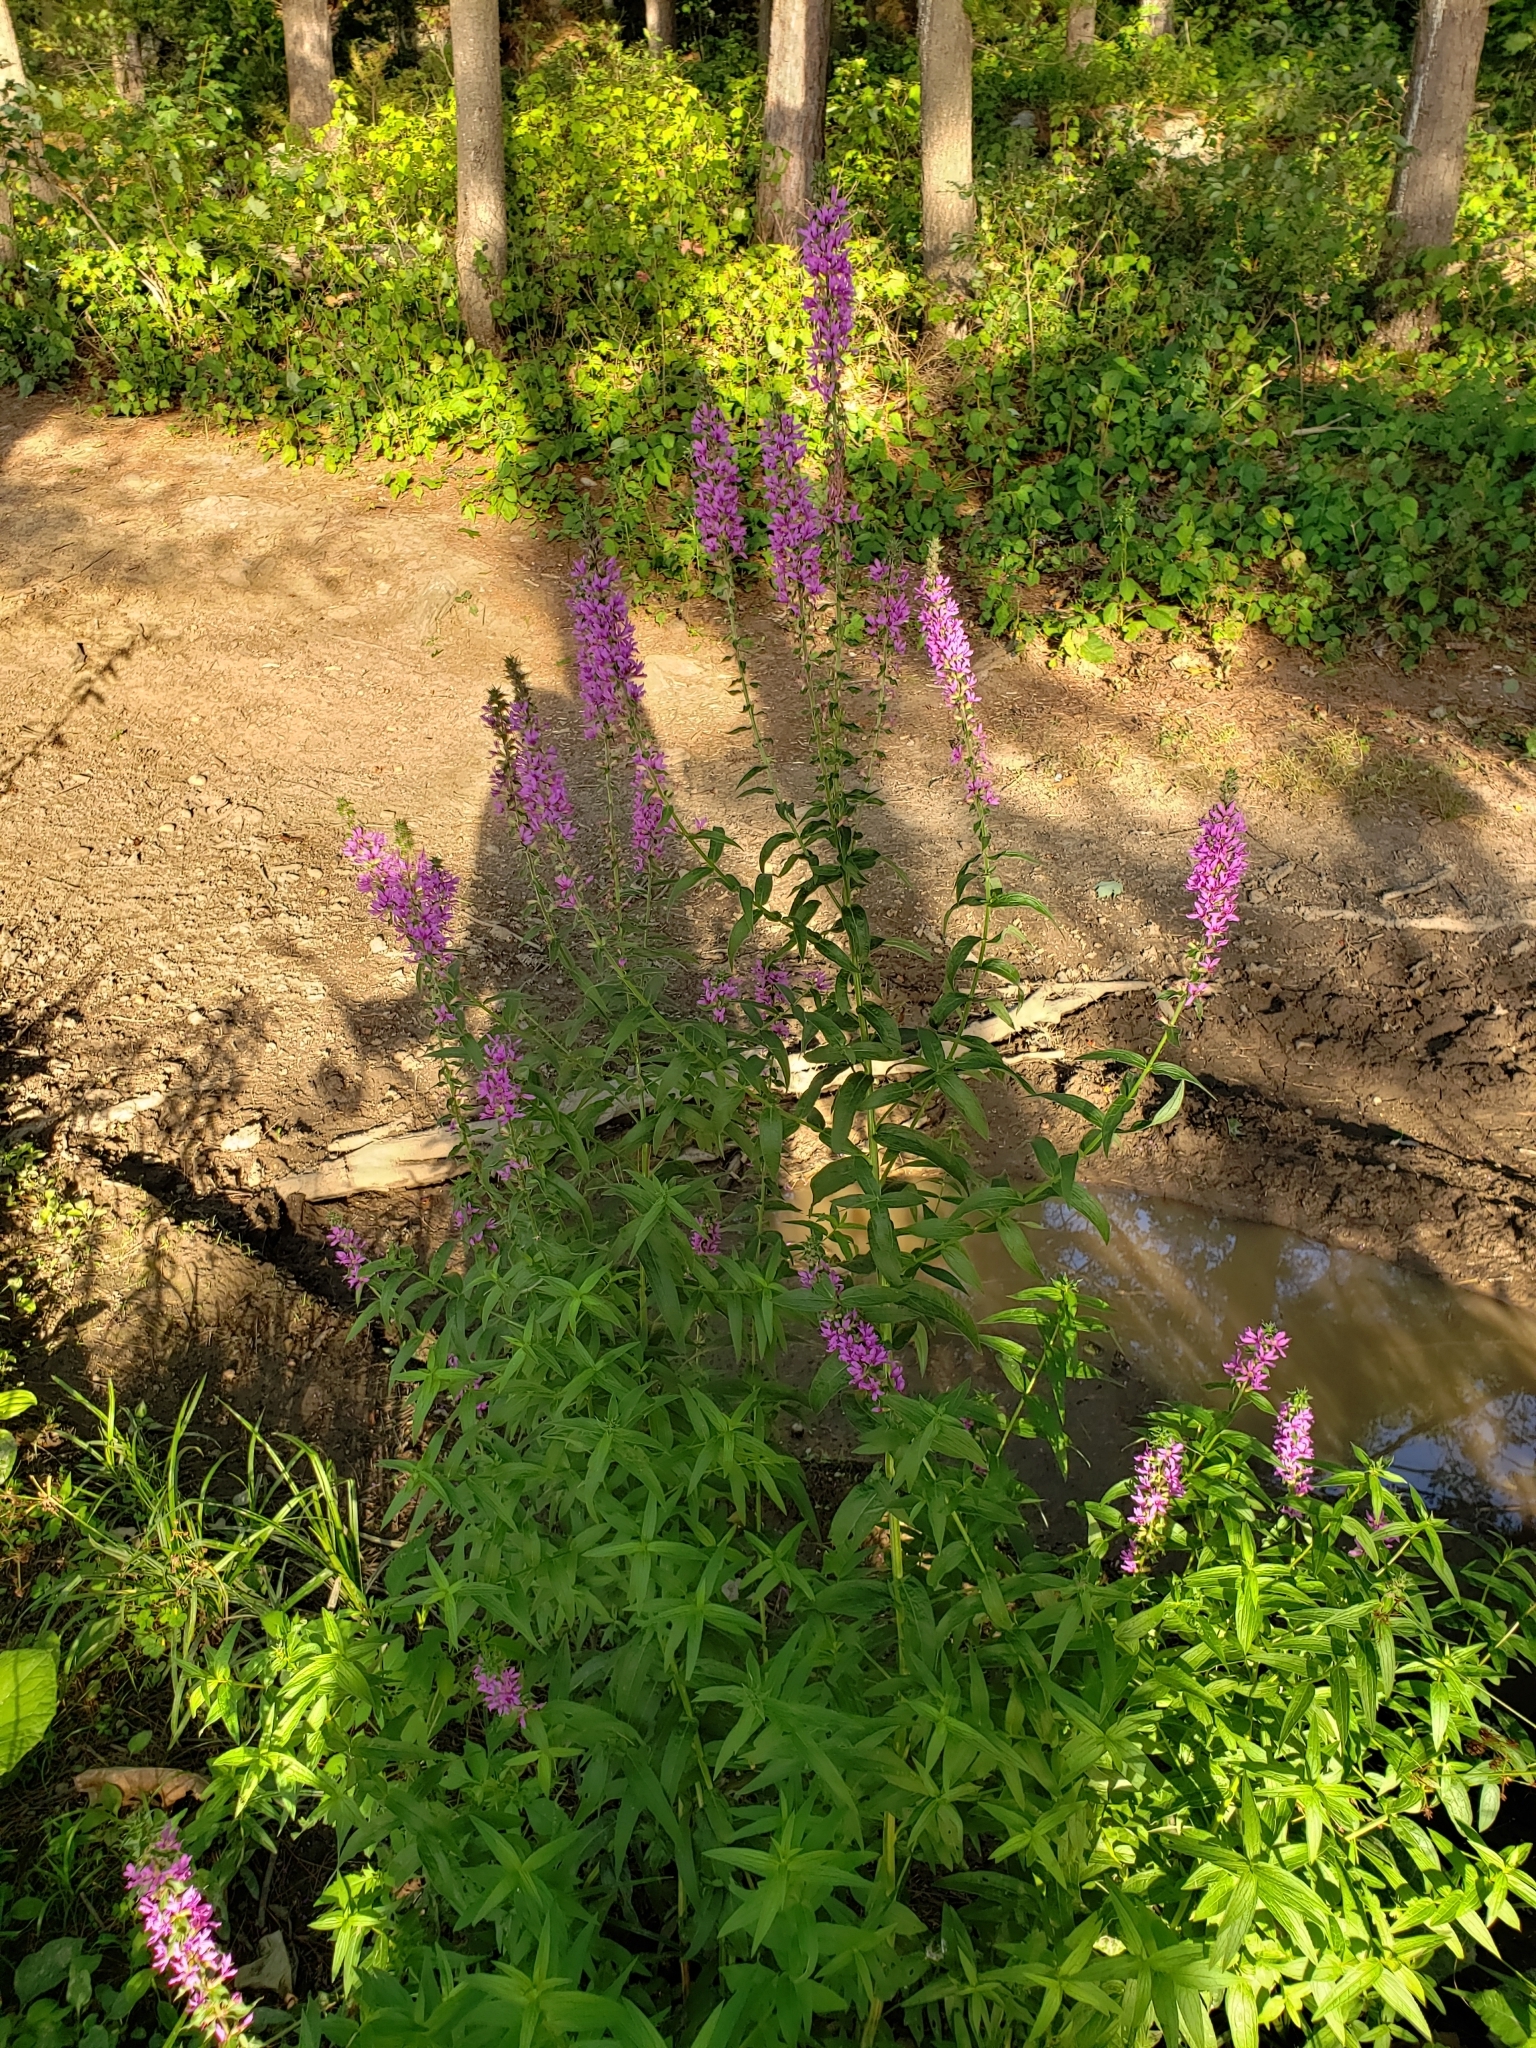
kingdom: Plantae
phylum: Tracheophyta
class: Magnoliopsida
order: Myrtales
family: Lythraceae
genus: Lythrum
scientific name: Lythrum salicaria
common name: Purple loosestrife
